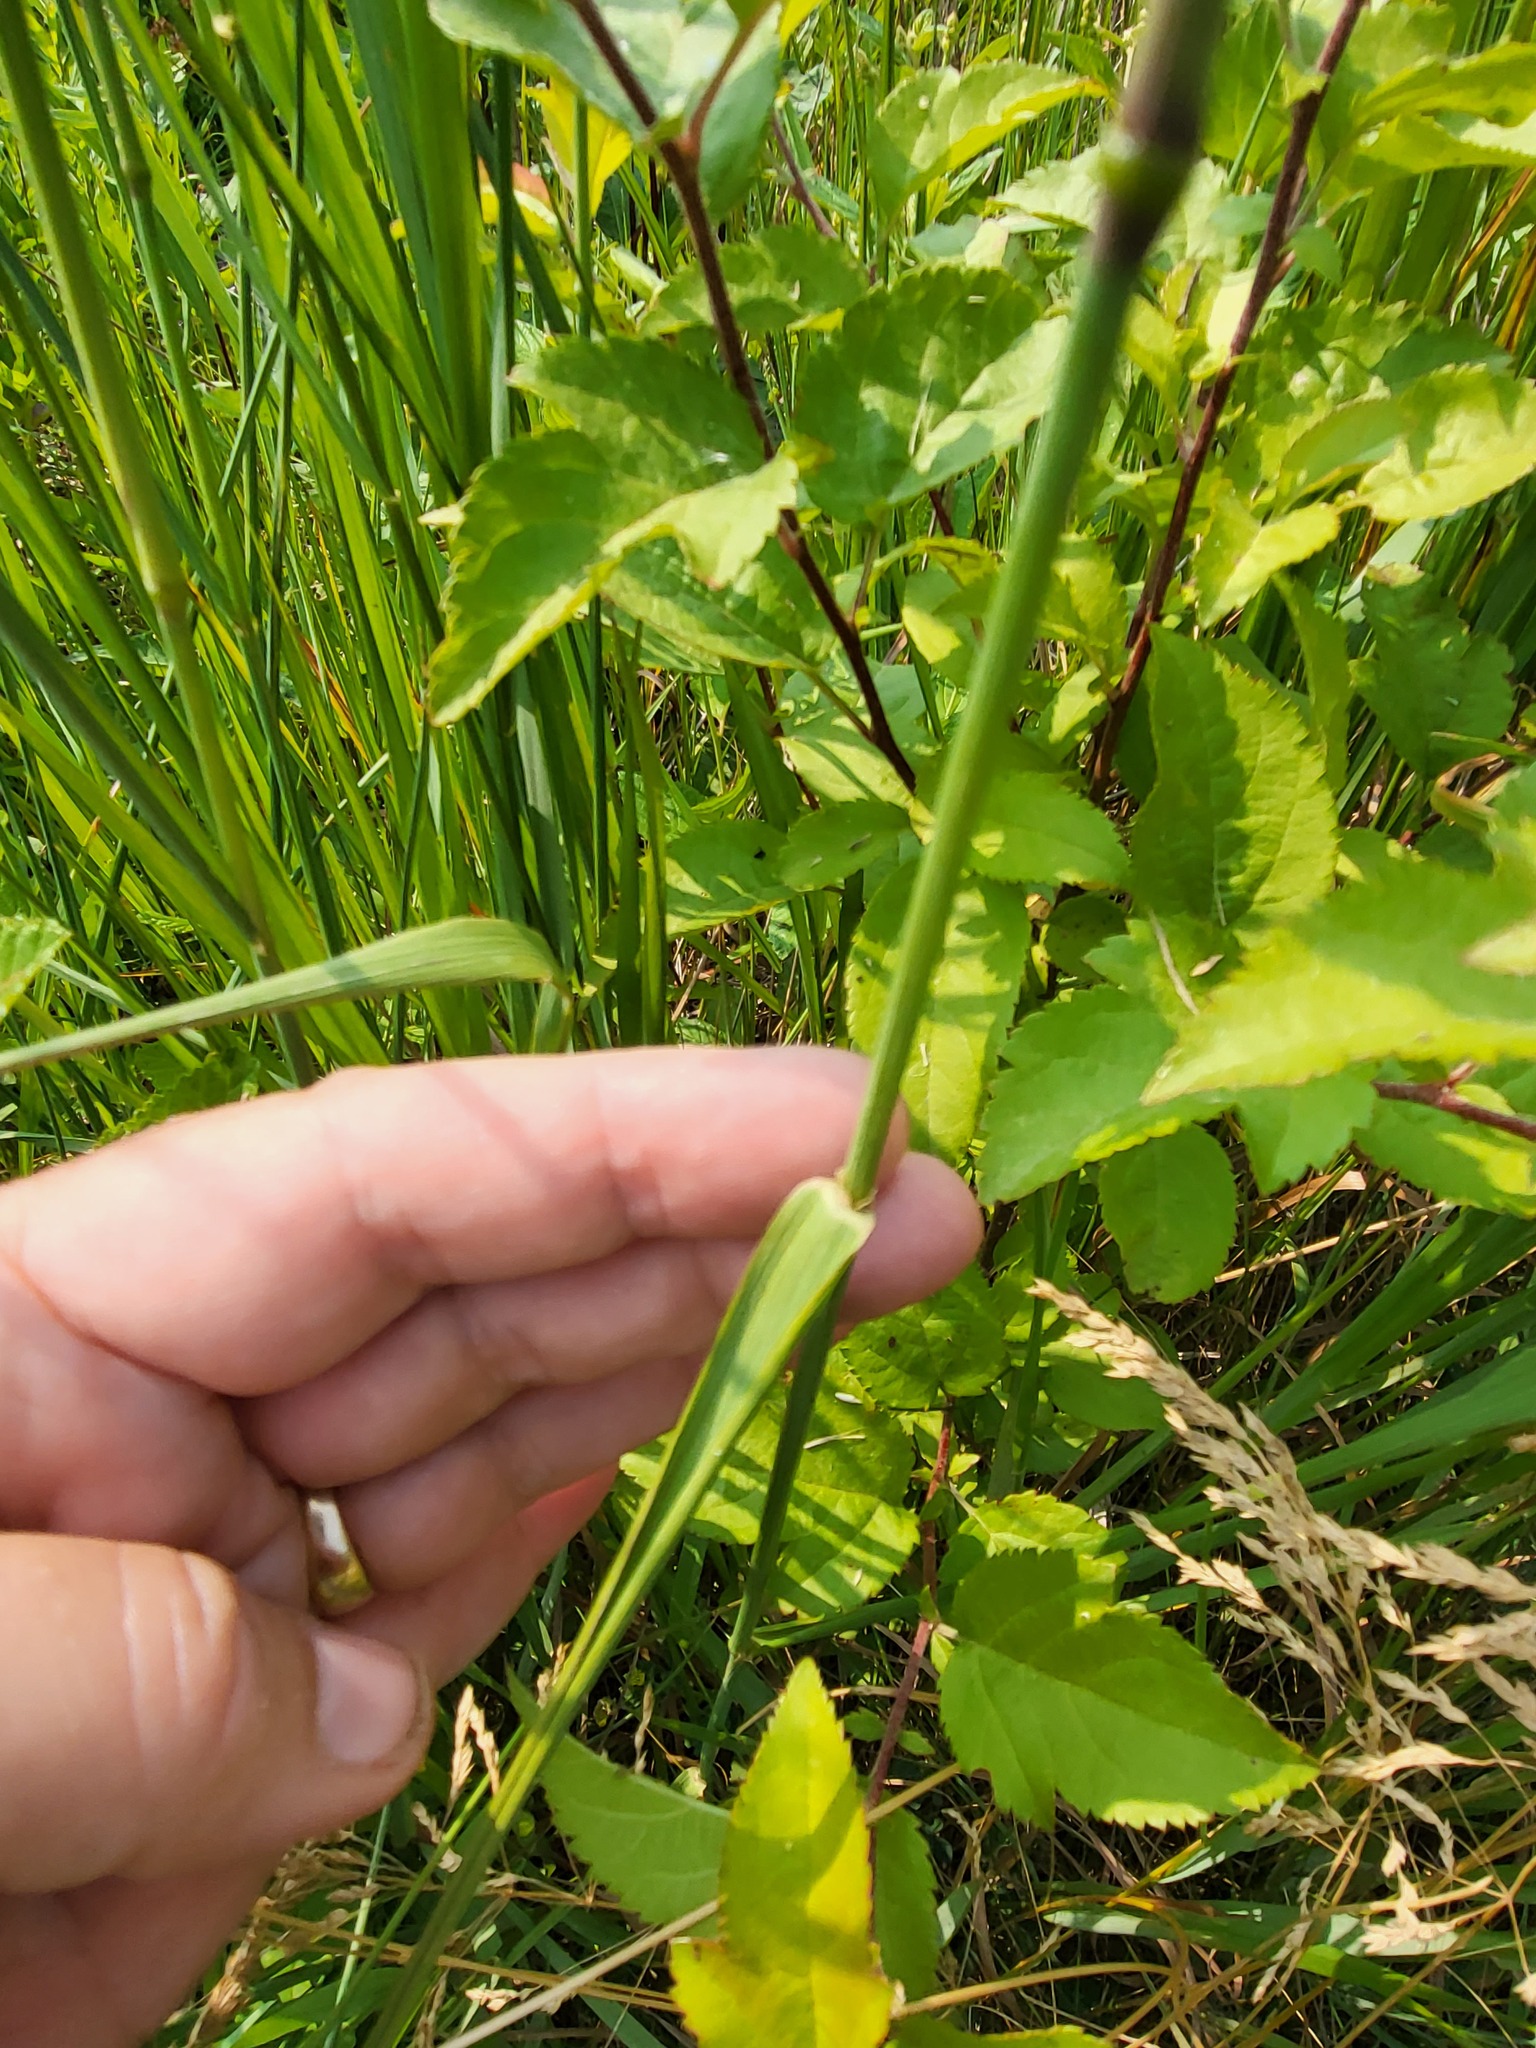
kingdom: Plantae
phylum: Tracheophyta
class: Liliopsida
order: Poales
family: Poaceae
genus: Phleum
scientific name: Phleum pratense
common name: Timothy grass
